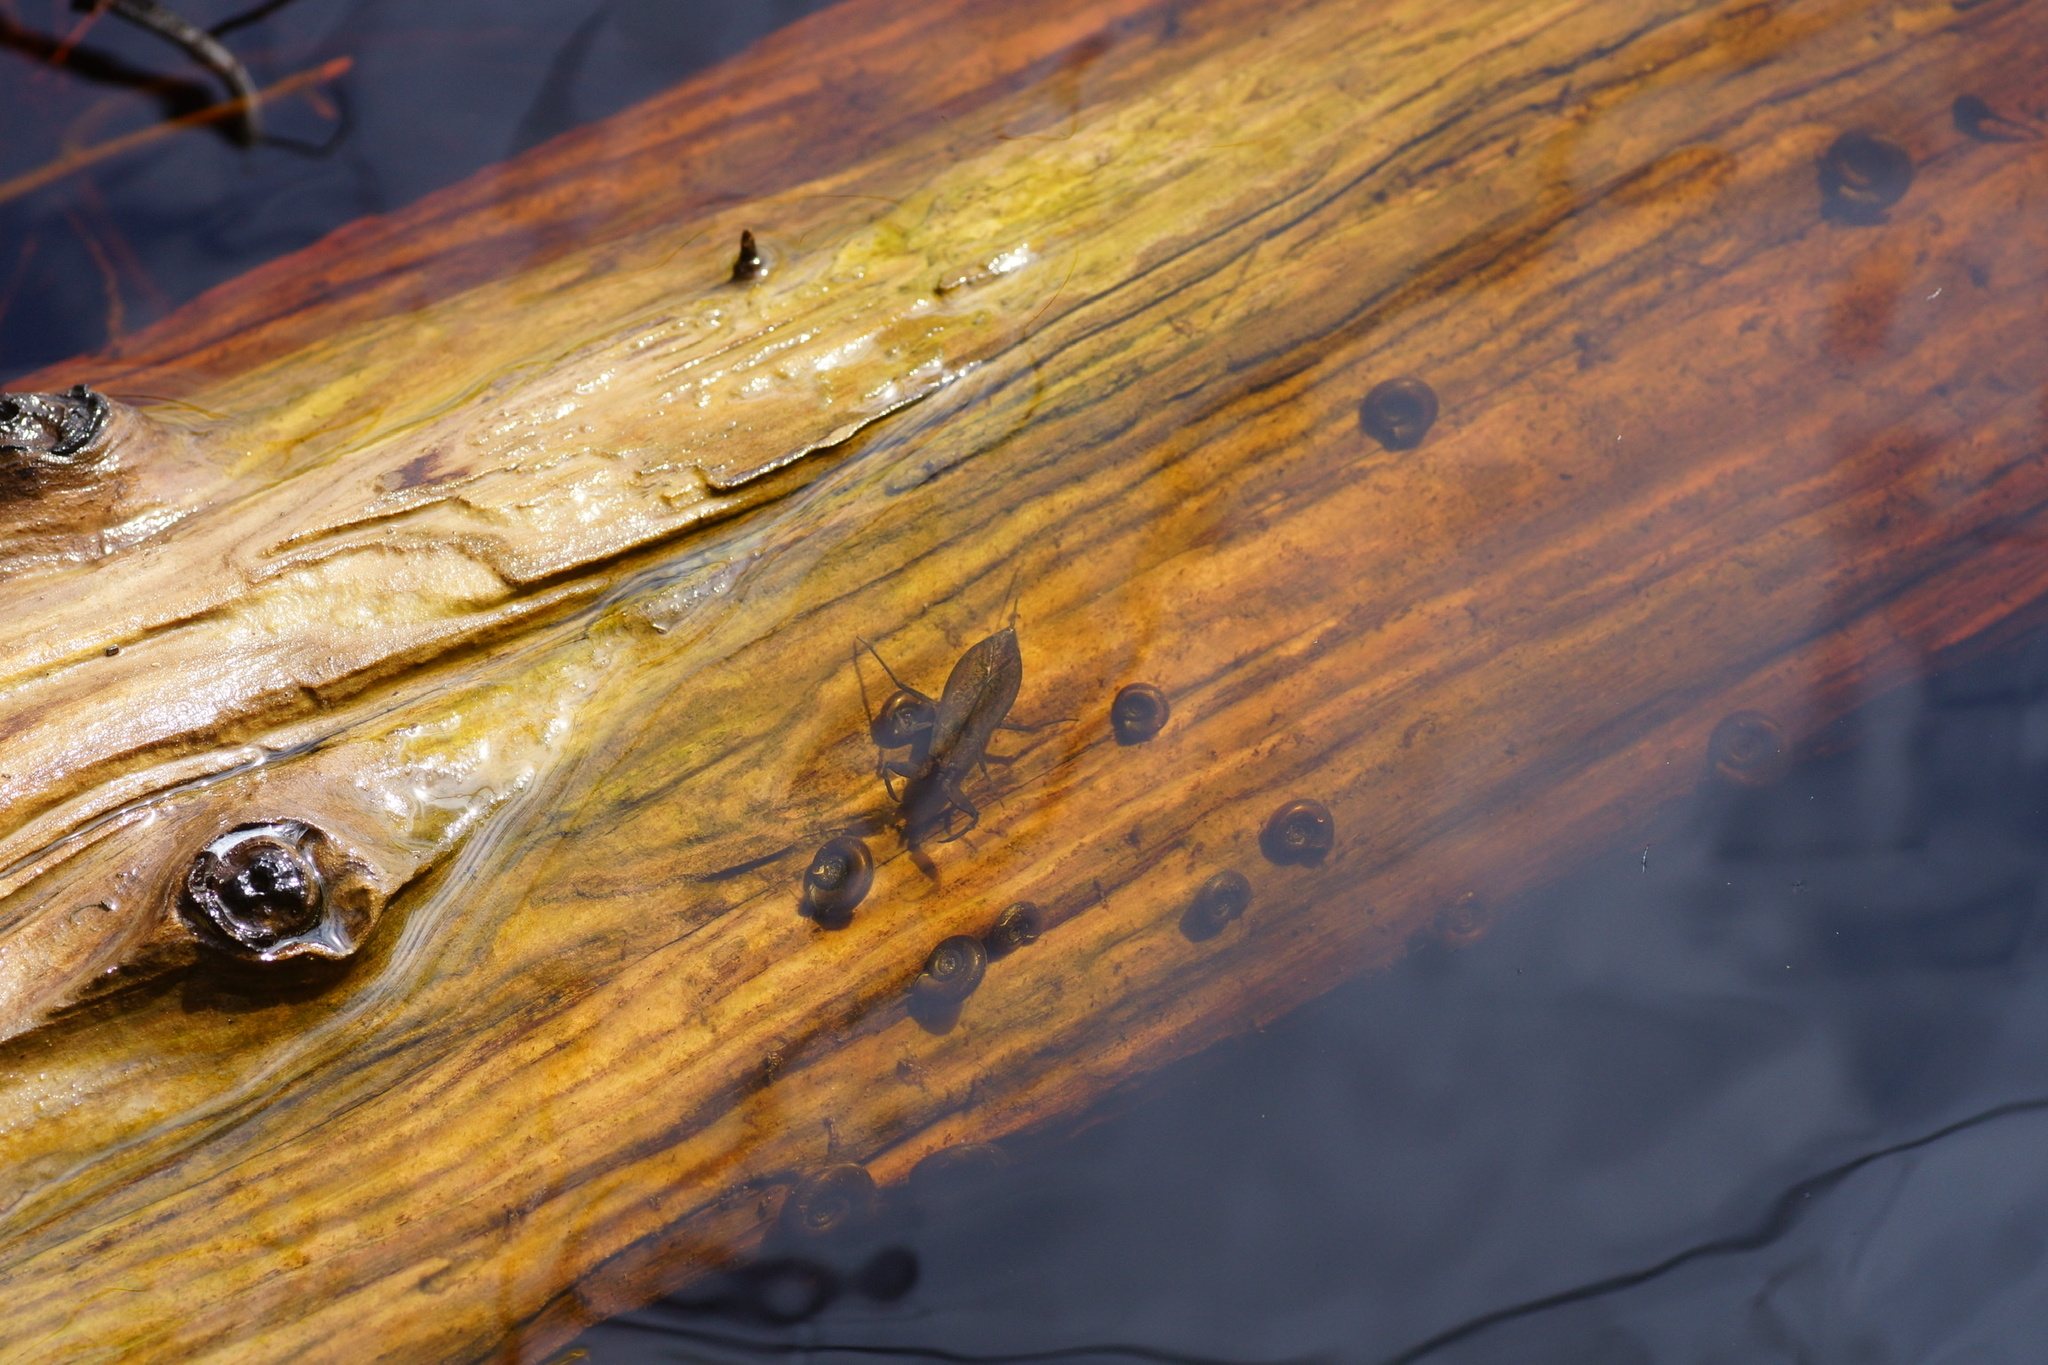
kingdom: Animalia
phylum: Arthropoda
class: Insecta
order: Hemiptera
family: Nepidae
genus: Nepa
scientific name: Nepa cinerea
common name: Water scorpion
